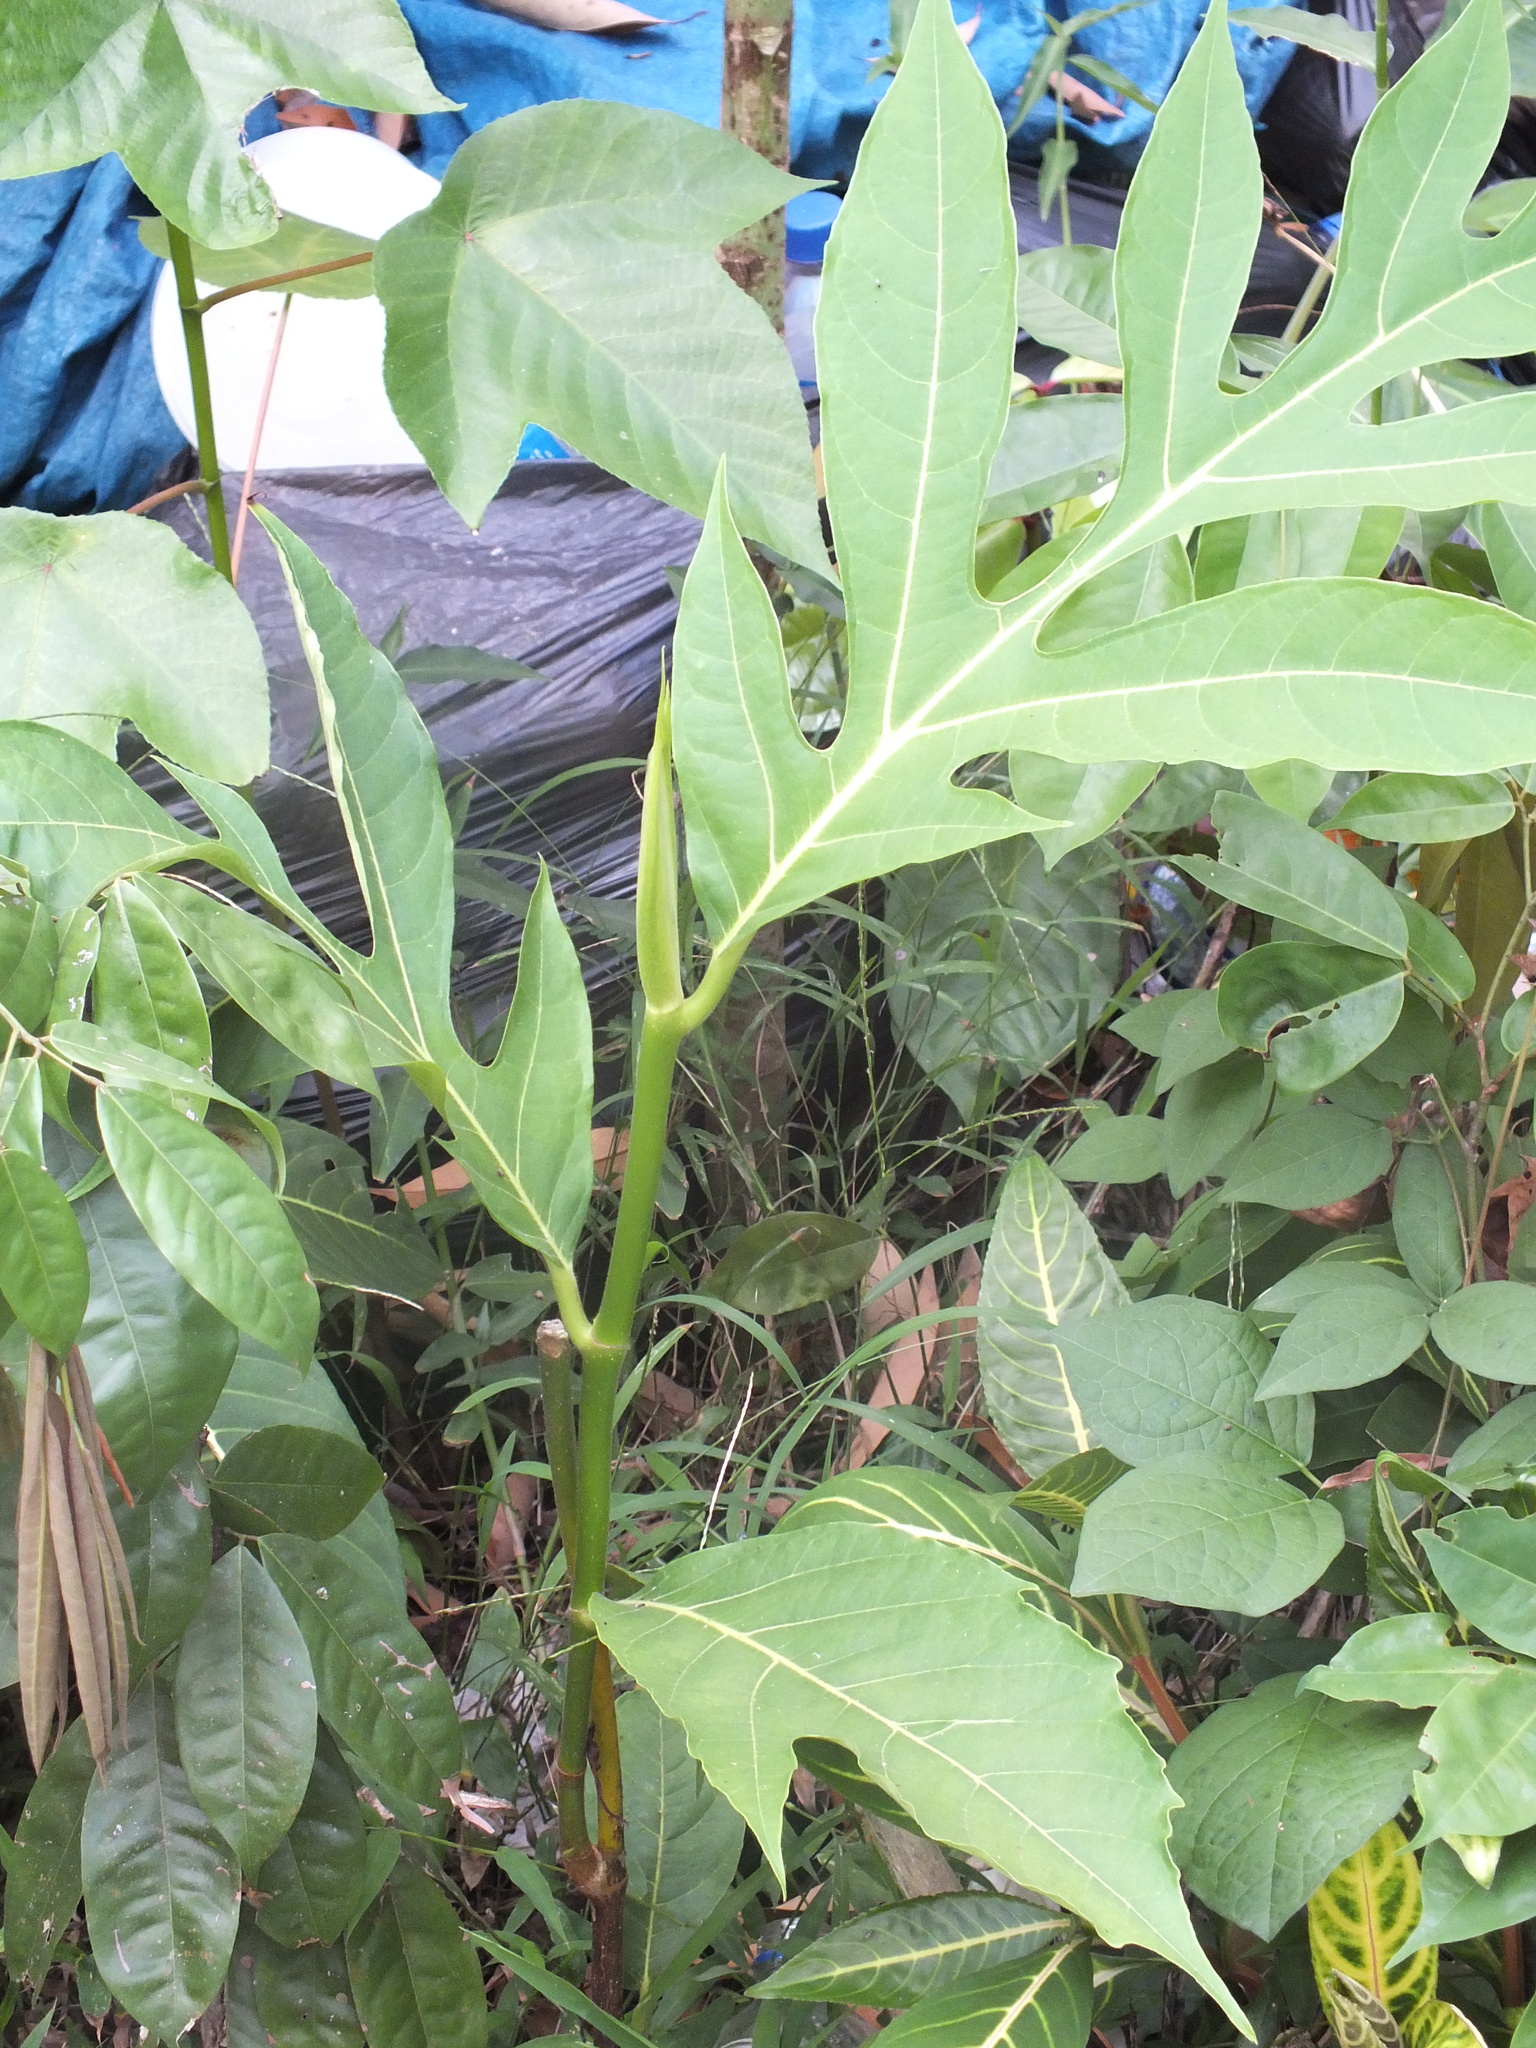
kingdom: Plantae
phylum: Tracheophyta
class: Magnoliopsida
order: Rosales
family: Moraceae
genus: Artocarpus
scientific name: Artocarpus altilis
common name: Breadfruit
